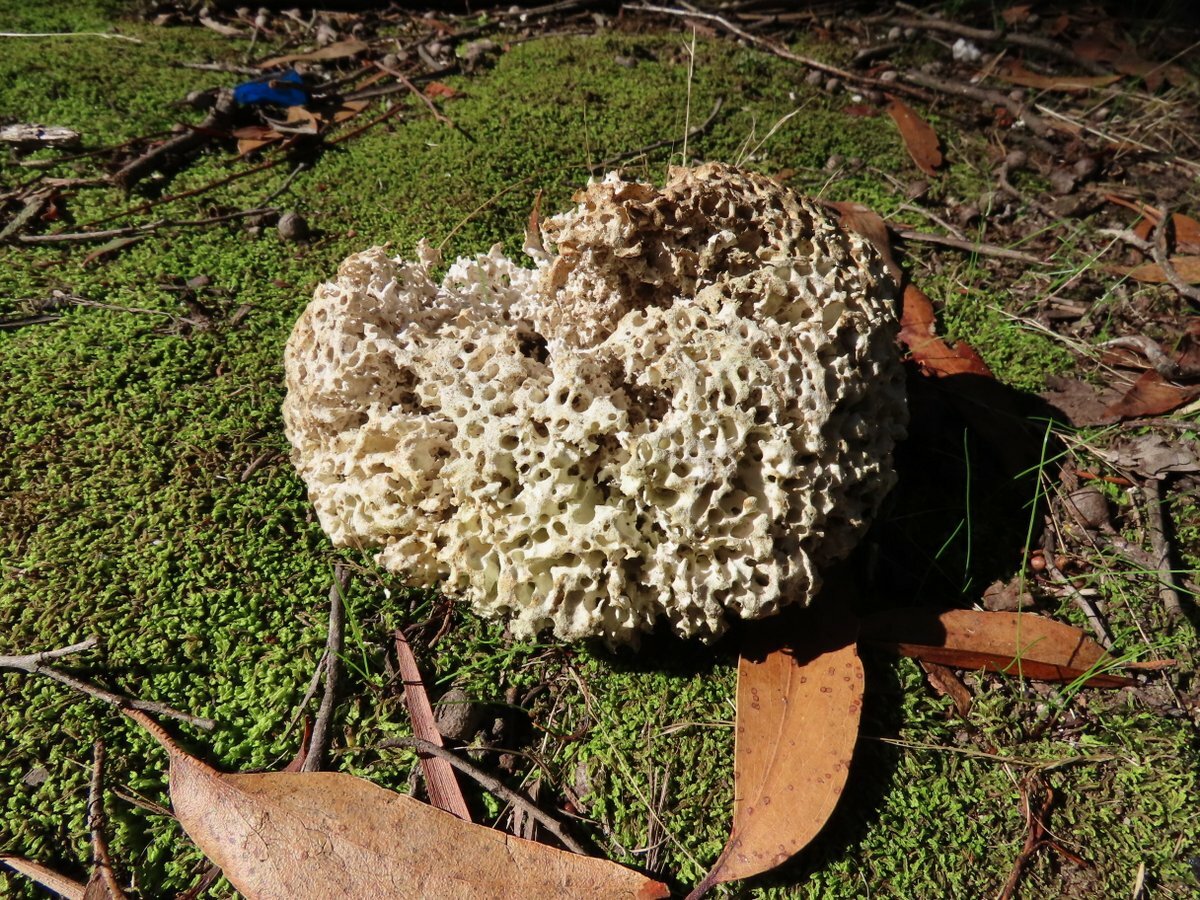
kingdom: Fungi
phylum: Basidiomycota
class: Agaricomycetes
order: Polyporales
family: Laetiporaceae
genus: Laetiporus
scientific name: Laetiporus portentosus
